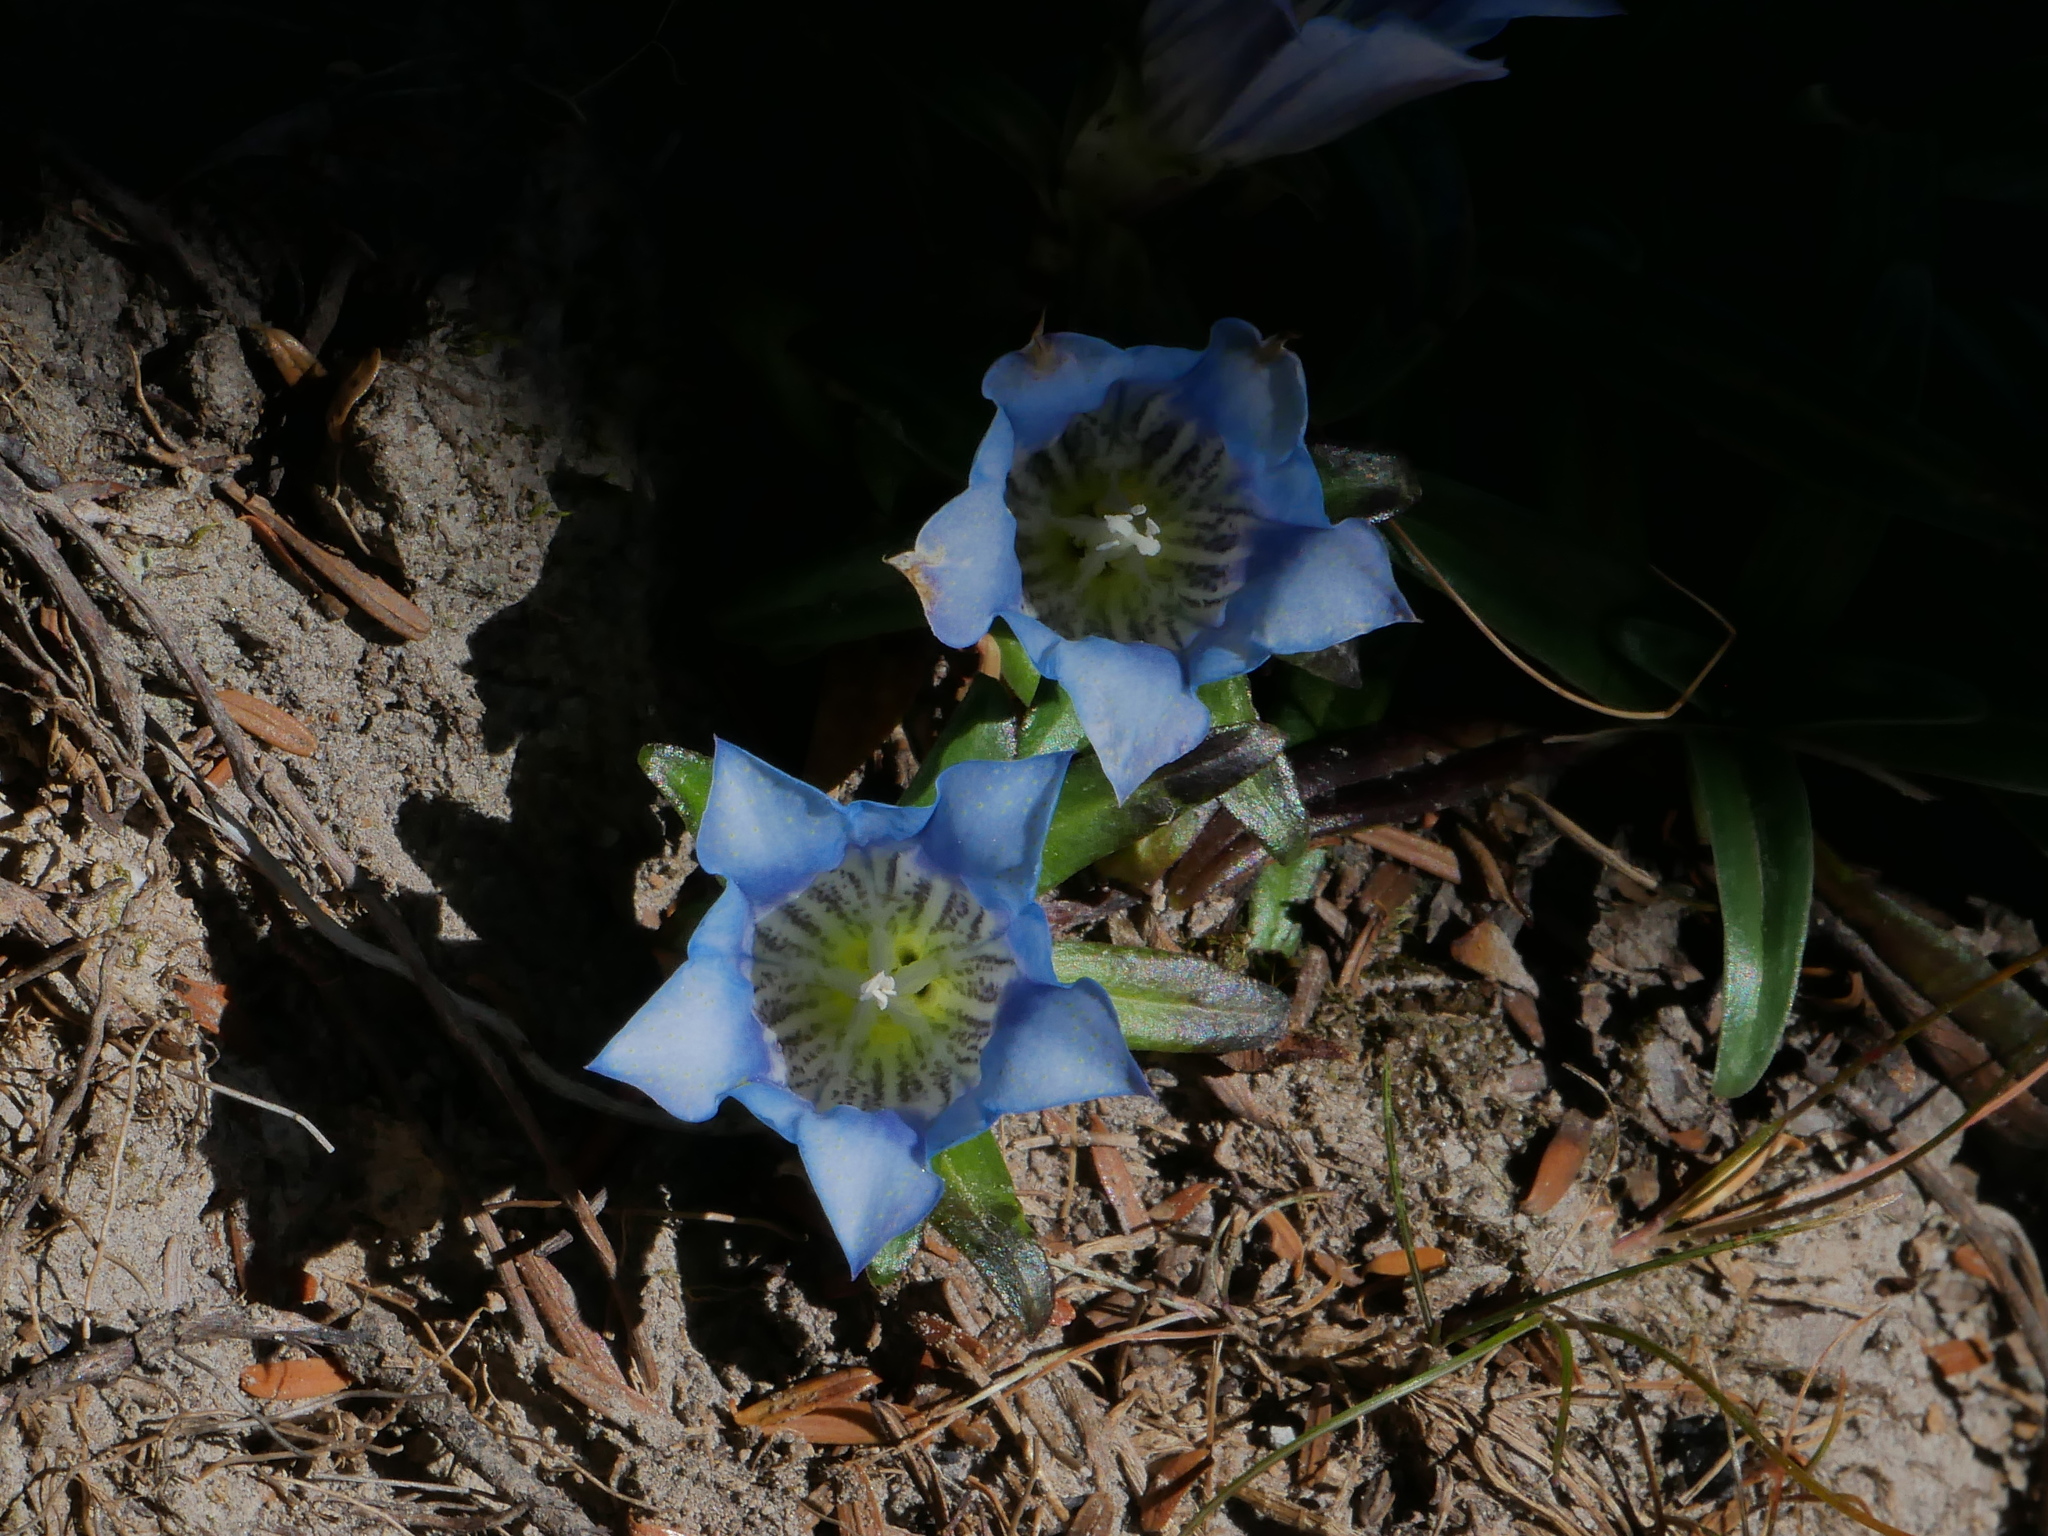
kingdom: Plantae
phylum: Tracheophyta
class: Magnoliopsida
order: Gentianales
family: Gentianaceae
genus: Gentiana
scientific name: Gentiana davidii
